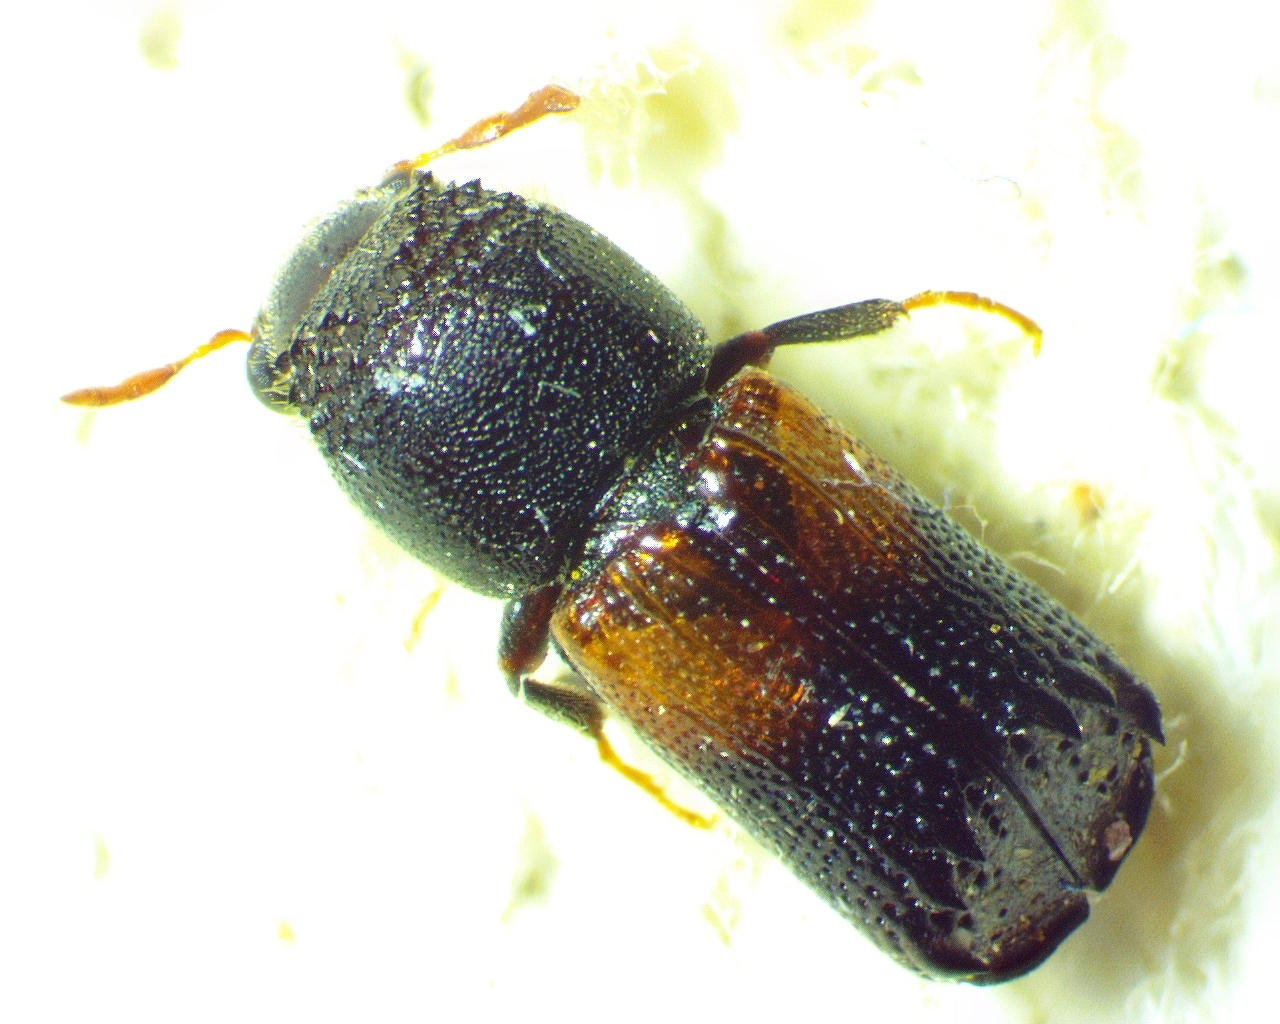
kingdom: Animalia
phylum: Arthropoda
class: Insecta
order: Coleoptera
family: Bostrichidae
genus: Xylobiops
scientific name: Xylobiops basilaris
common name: Red-shouldered bostrichid
